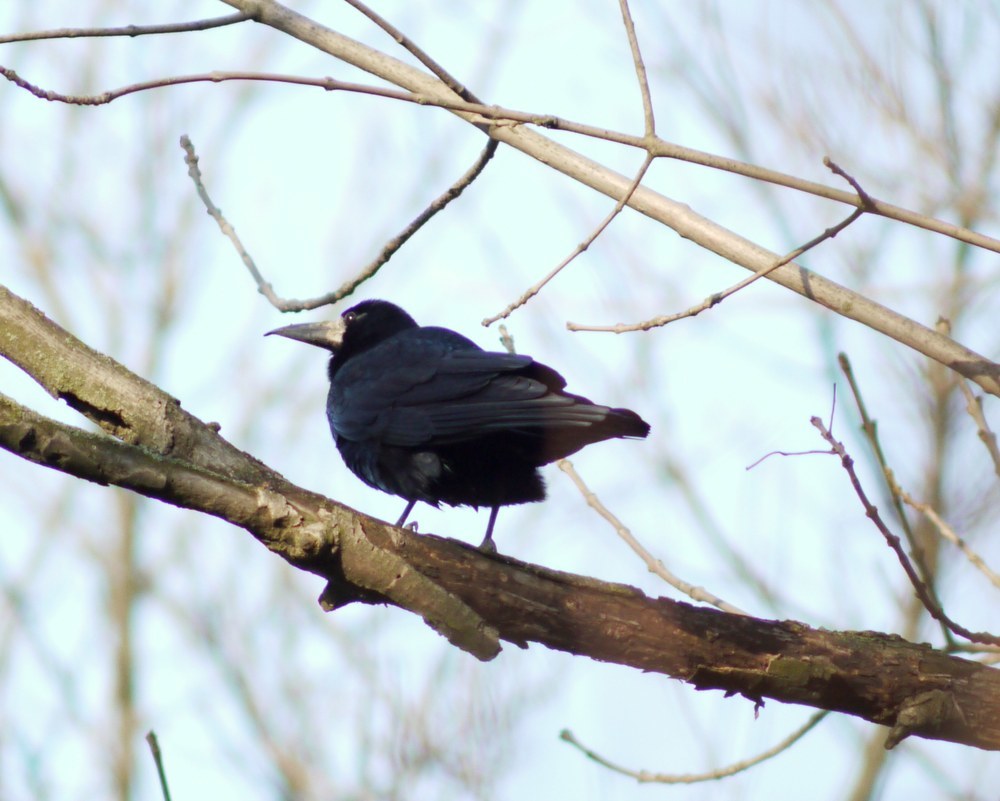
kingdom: Animalia
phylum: Chordata
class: Aves
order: Passeriformes
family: Corvidae
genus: Corvus
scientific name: Corvus frugilegus
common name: Rook
